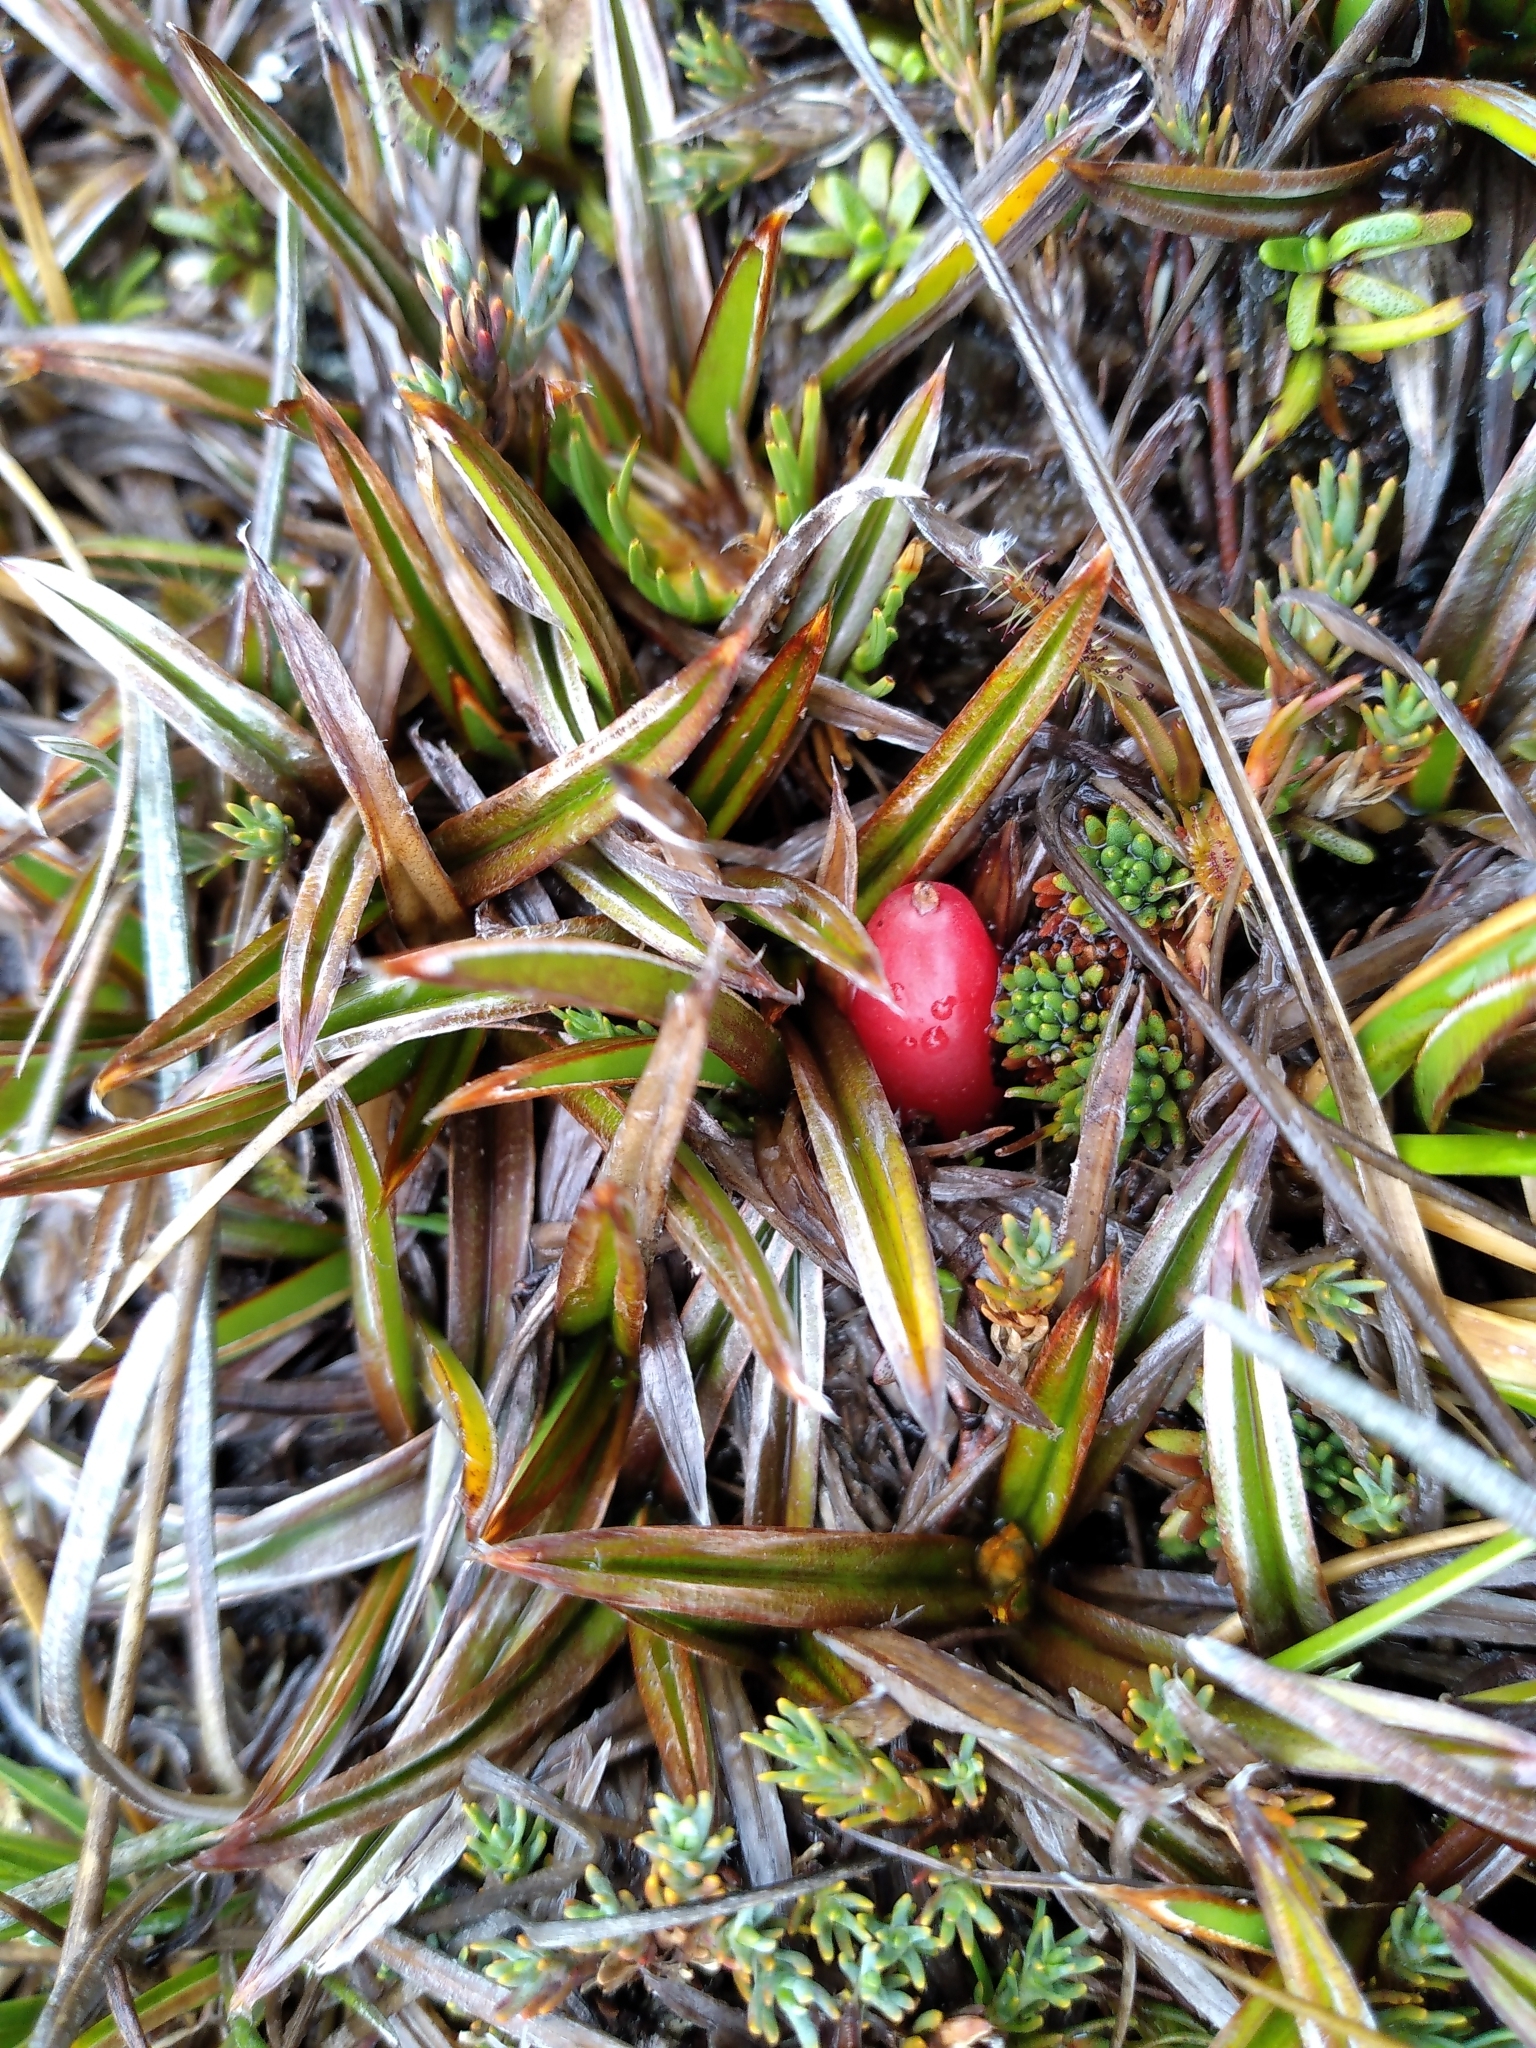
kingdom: Plantae
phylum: Tracheophyta
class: Liliopsida
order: Asparagales
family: Asteliaceae
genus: Astelia
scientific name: Astelia linearis
